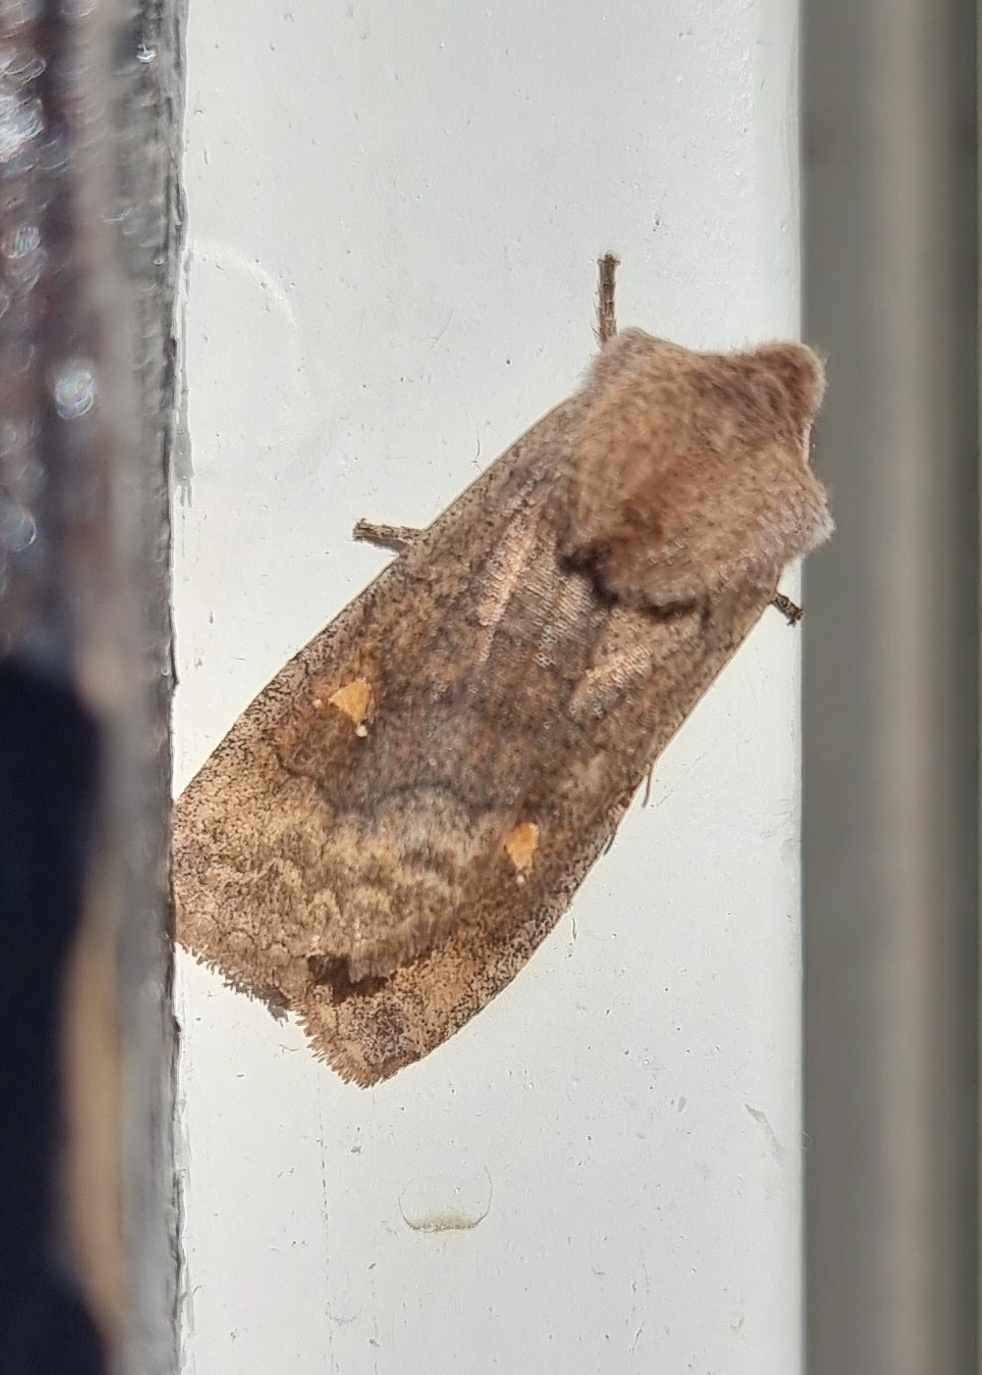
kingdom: Animalia
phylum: Arthropoda
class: Insecta
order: Lepidoptera
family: Noctuidae
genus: Eupsilia
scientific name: Eupsilia transversa
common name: Satellite
